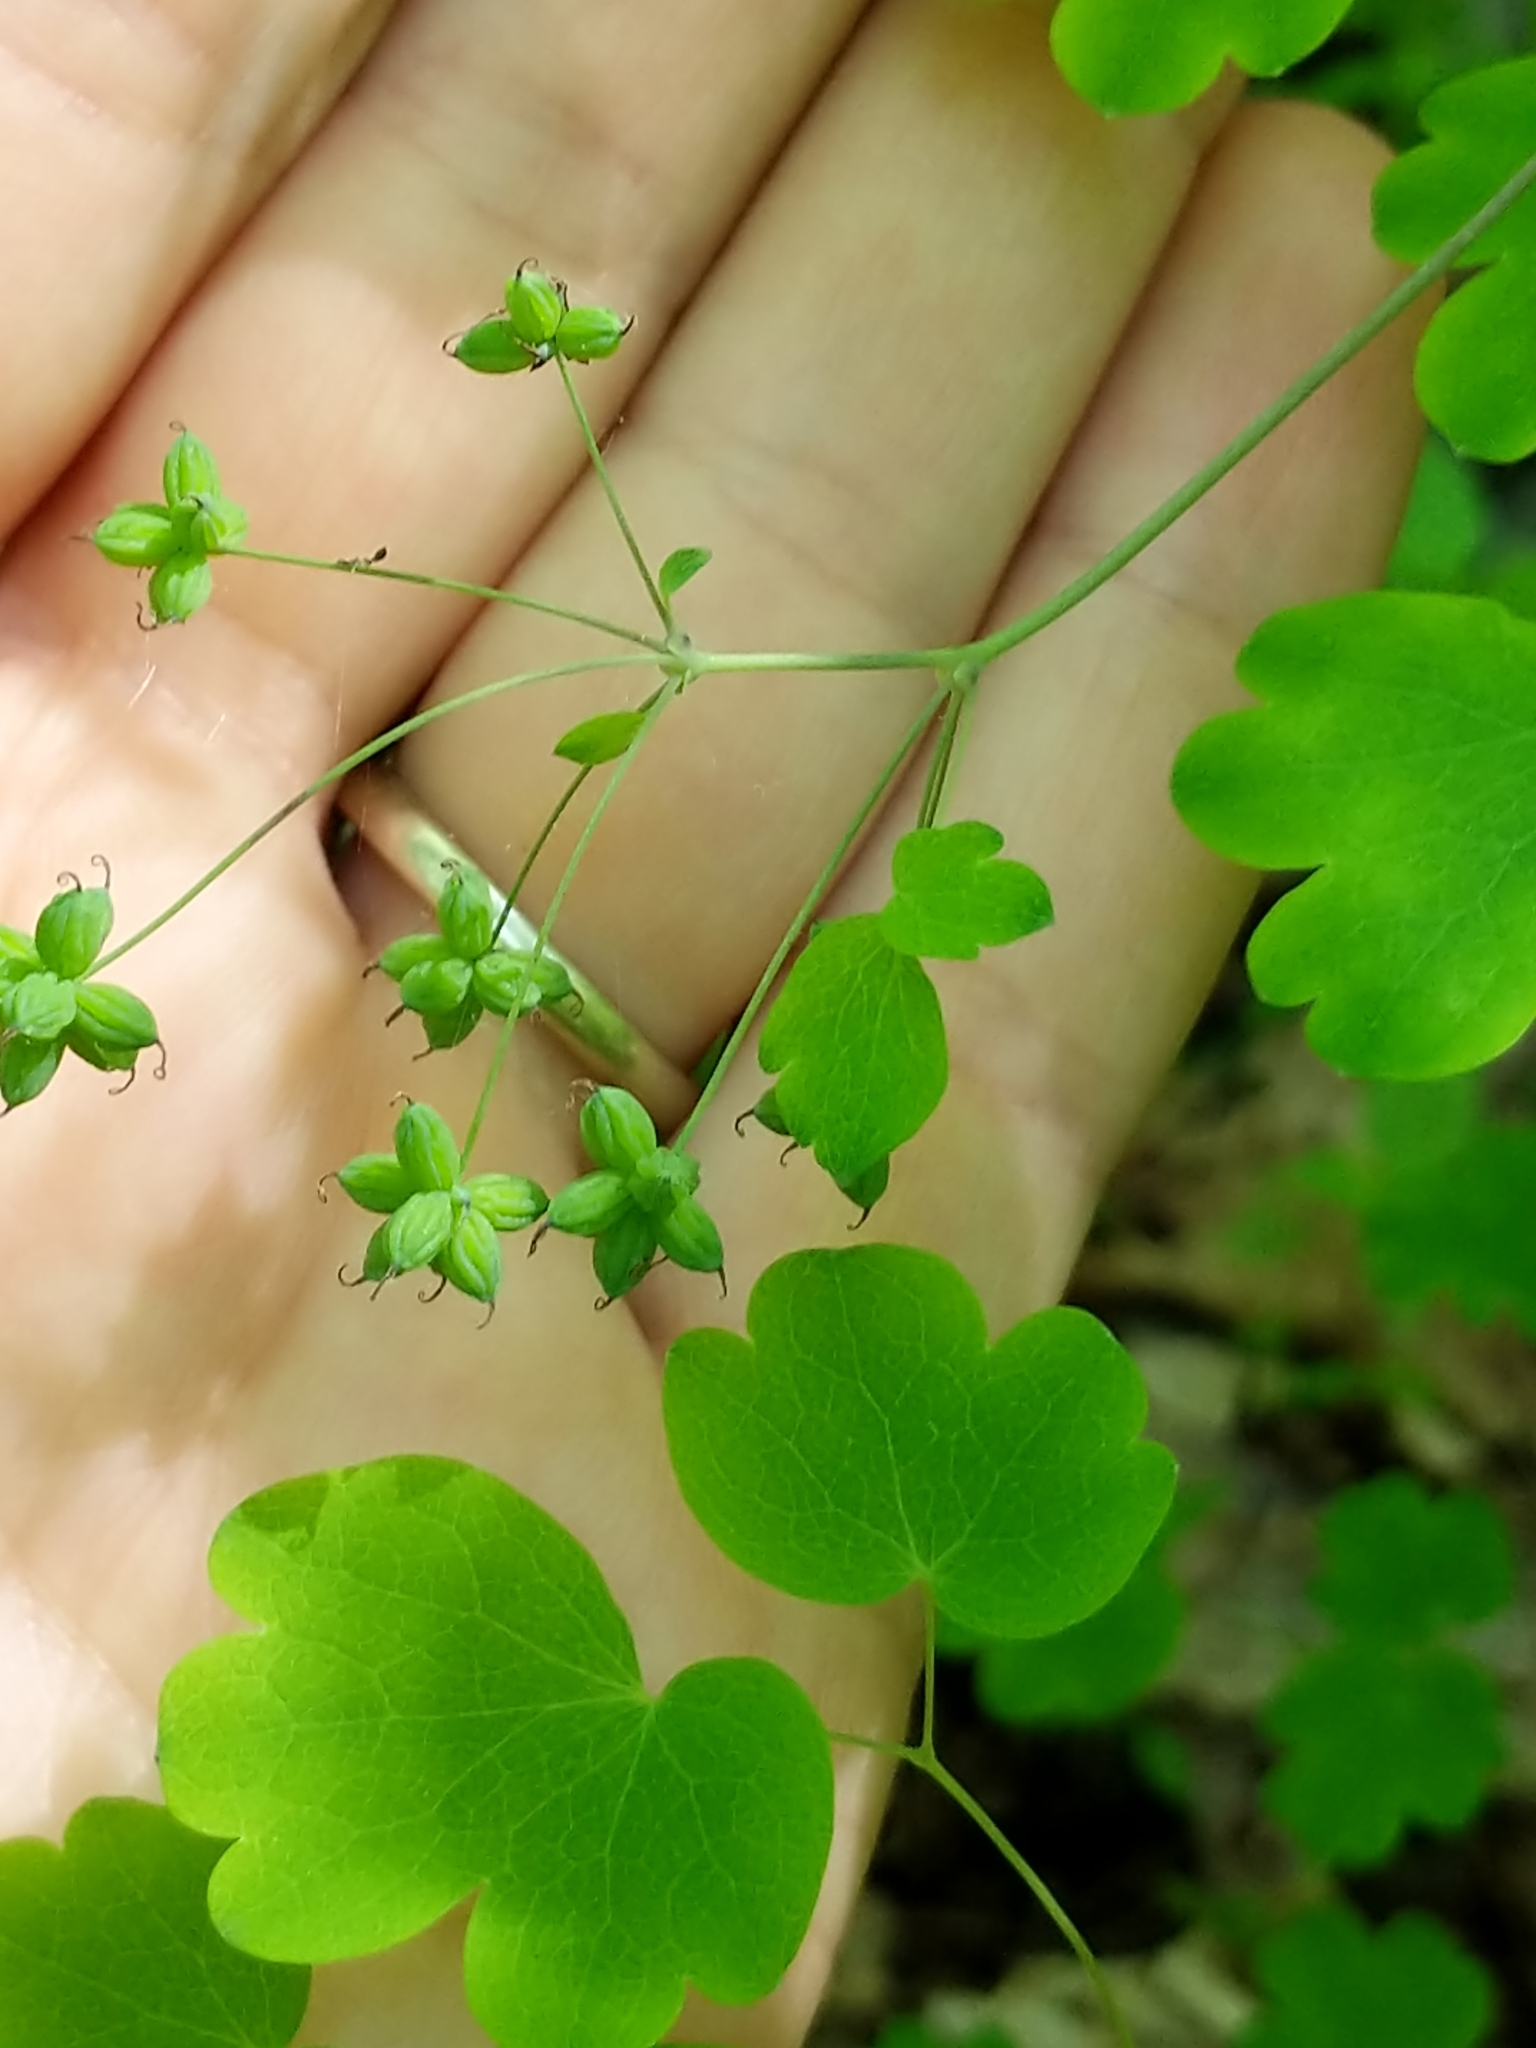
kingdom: Plantae
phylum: Tracheophyta
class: Magnoliopsida
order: Ranunculales
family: Ranunculaceae
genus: Thalictrum
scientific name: Thalictrum dioicum
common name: Early meadow-rue
